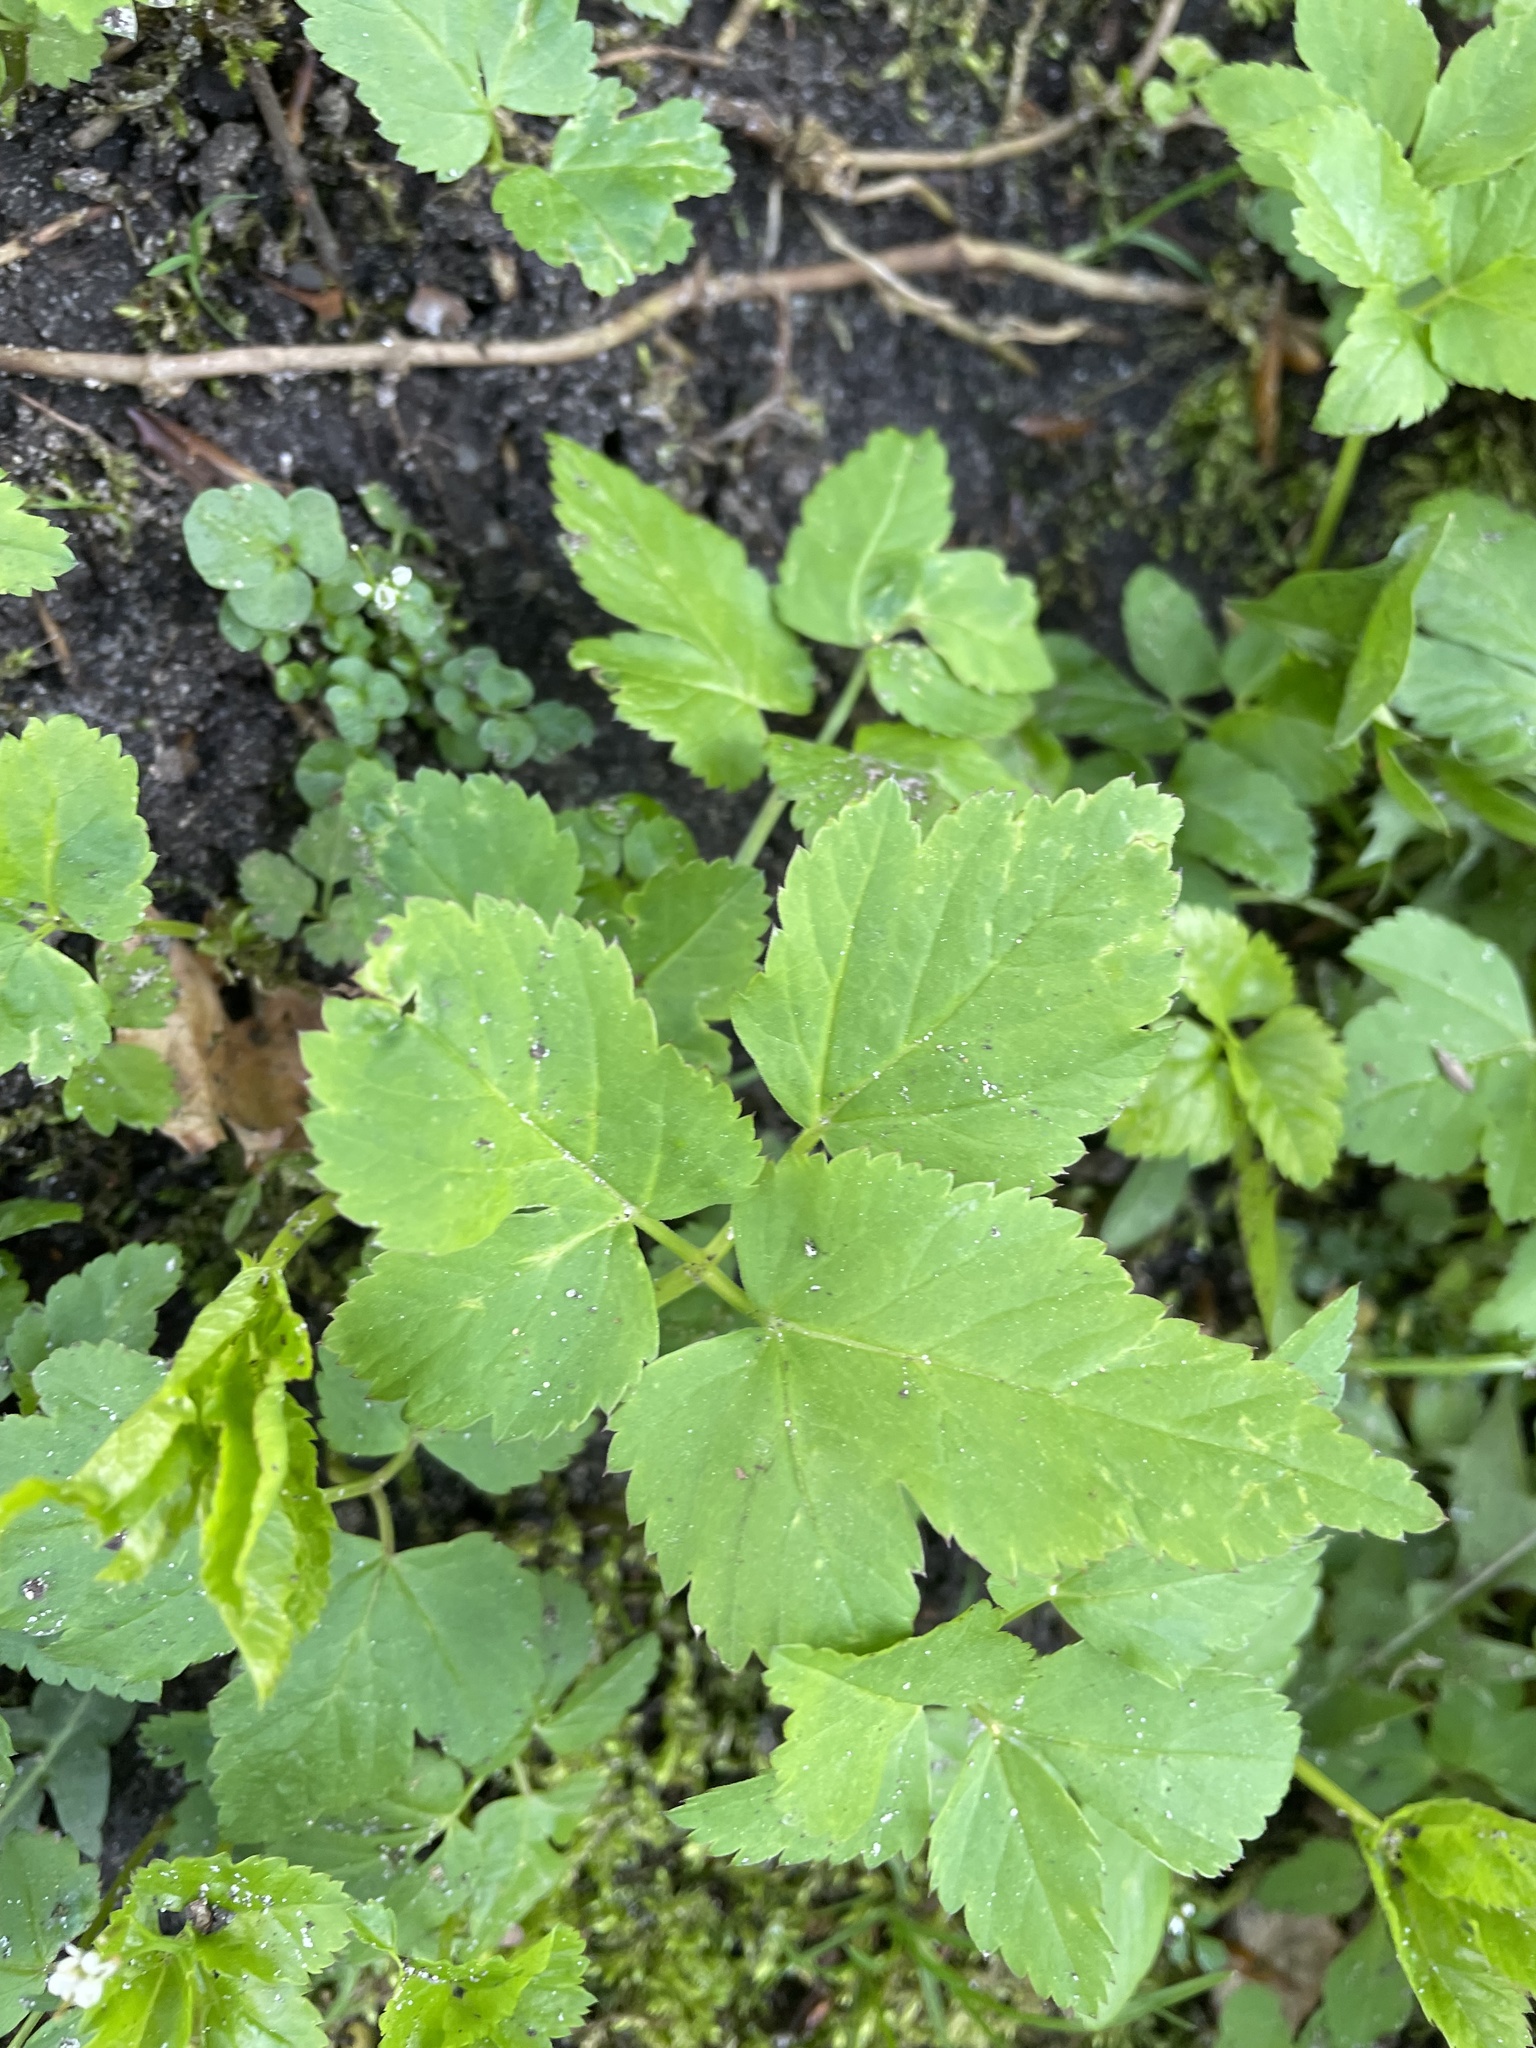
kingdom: Plantae
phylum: Tracheophyta
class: Magnoliopsida
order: Apiales
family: Apiaceae
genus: Aegopodium
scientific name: Aegopodium podagraria
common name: Ground-elder
